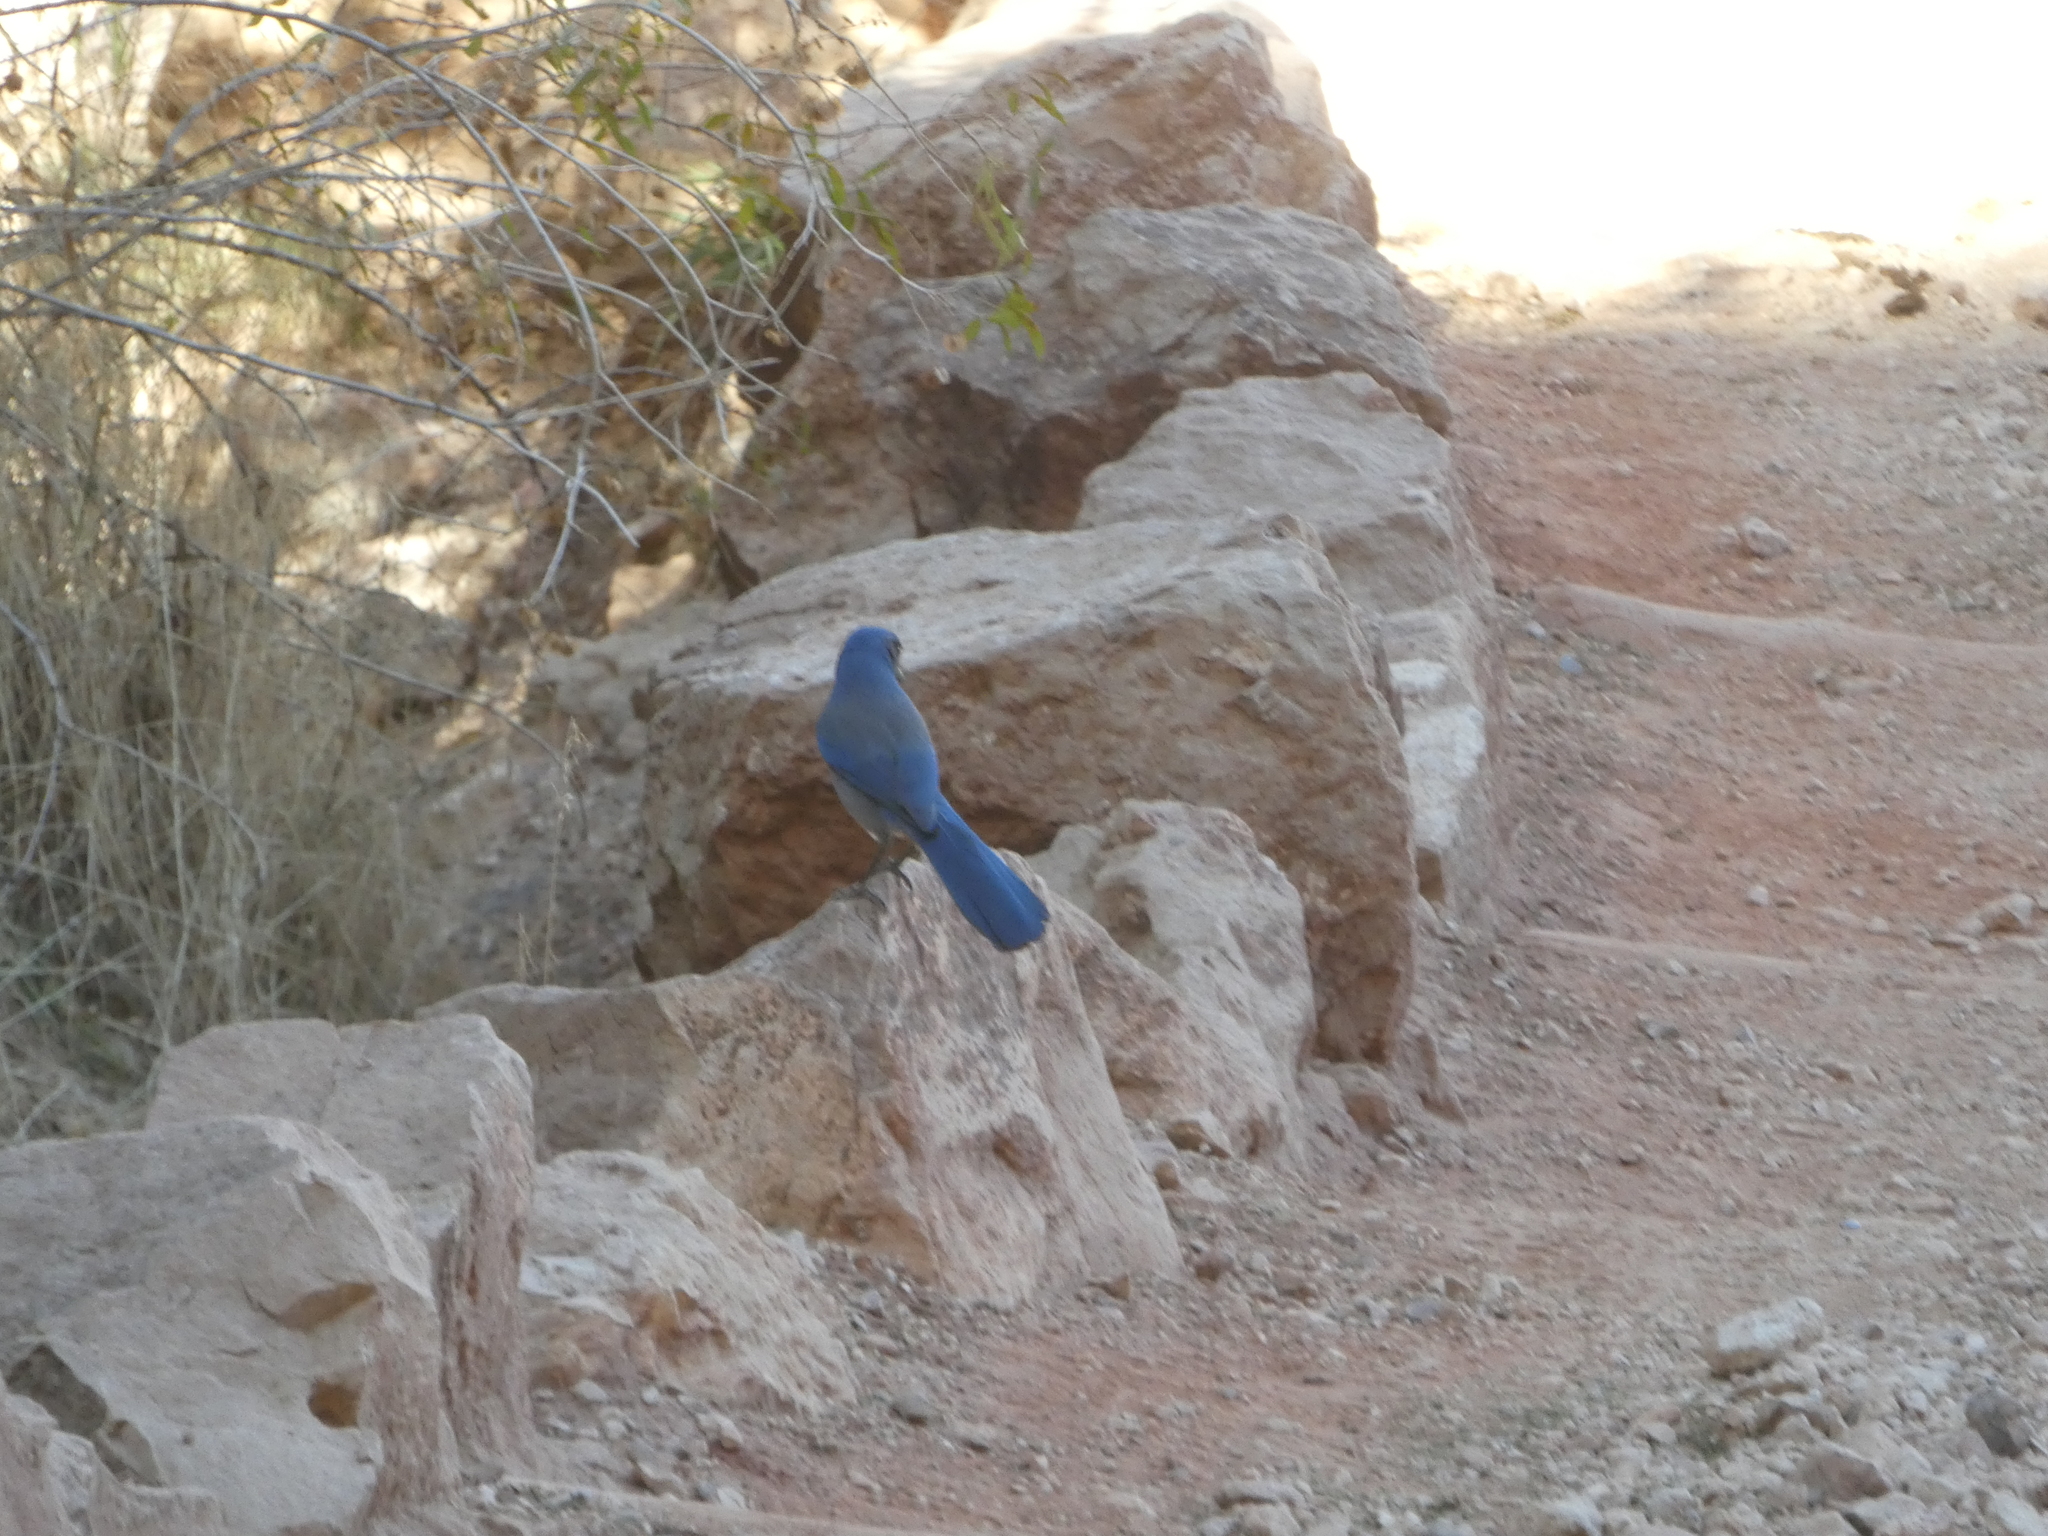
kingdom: Animalia
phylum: Chordata
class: Aves
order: Passeriformes
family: Corvidae
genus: Aphelocoma
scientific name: Aphelocoma woodhouseii
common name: Woodhouse's scrub-jay
